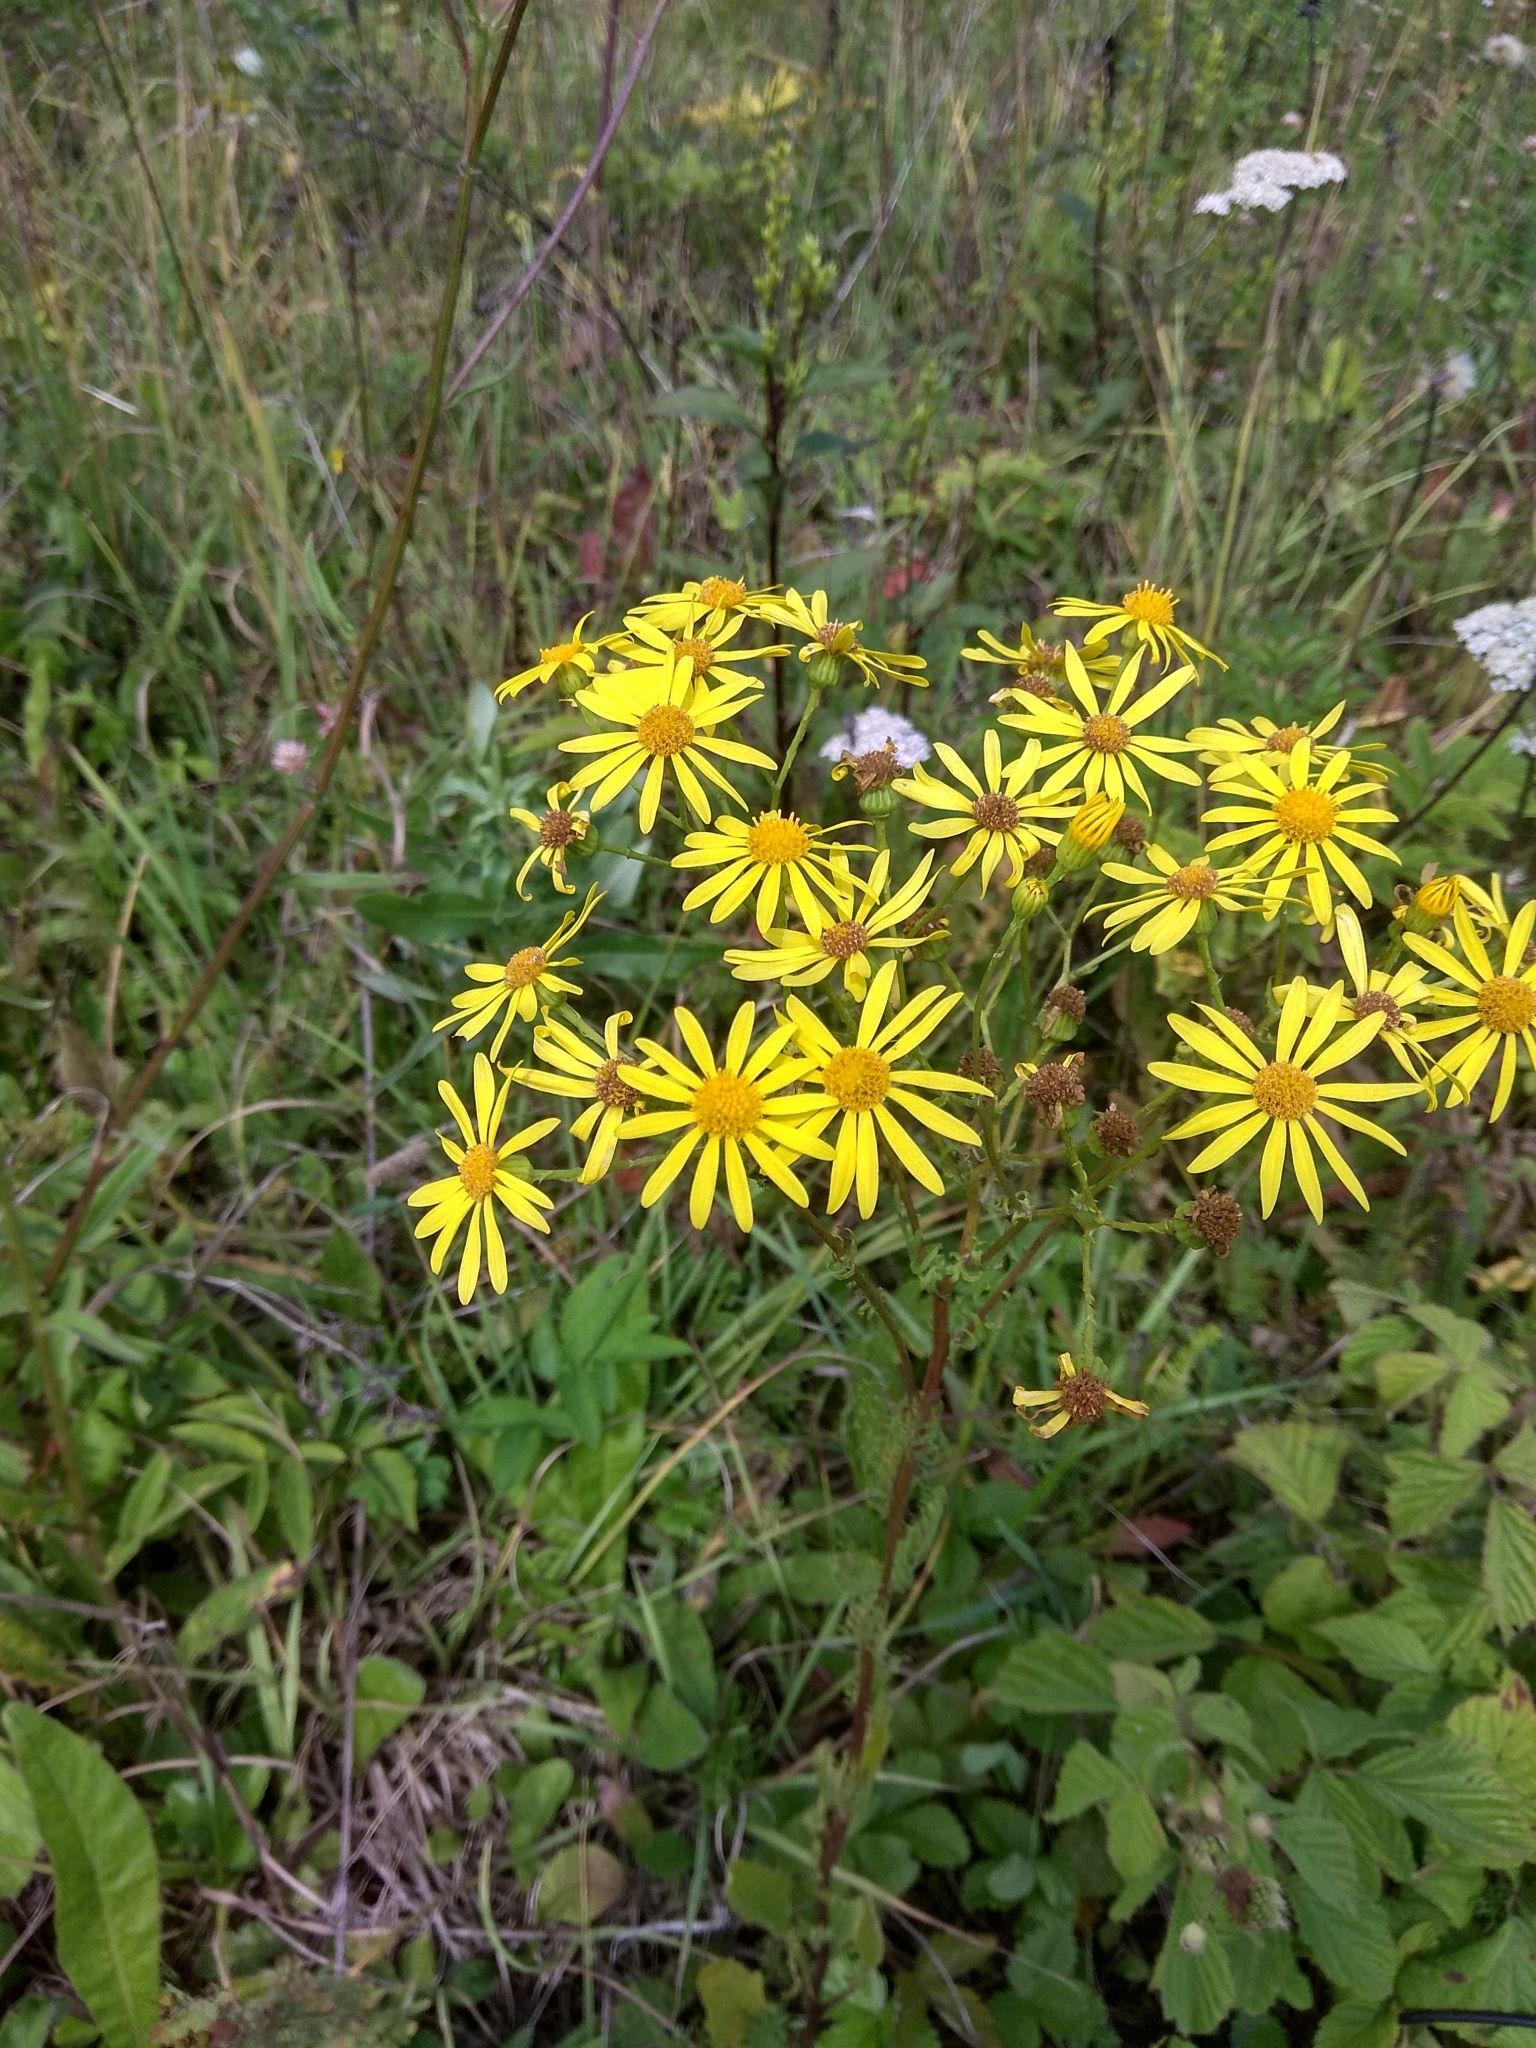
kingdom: Plantae
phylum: Tracheophyta
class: Magnoliopsida
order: Asterales
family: Asteraceae
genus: Jacobaea
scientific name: Jacobaea vulgaris
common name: Stinking willie
